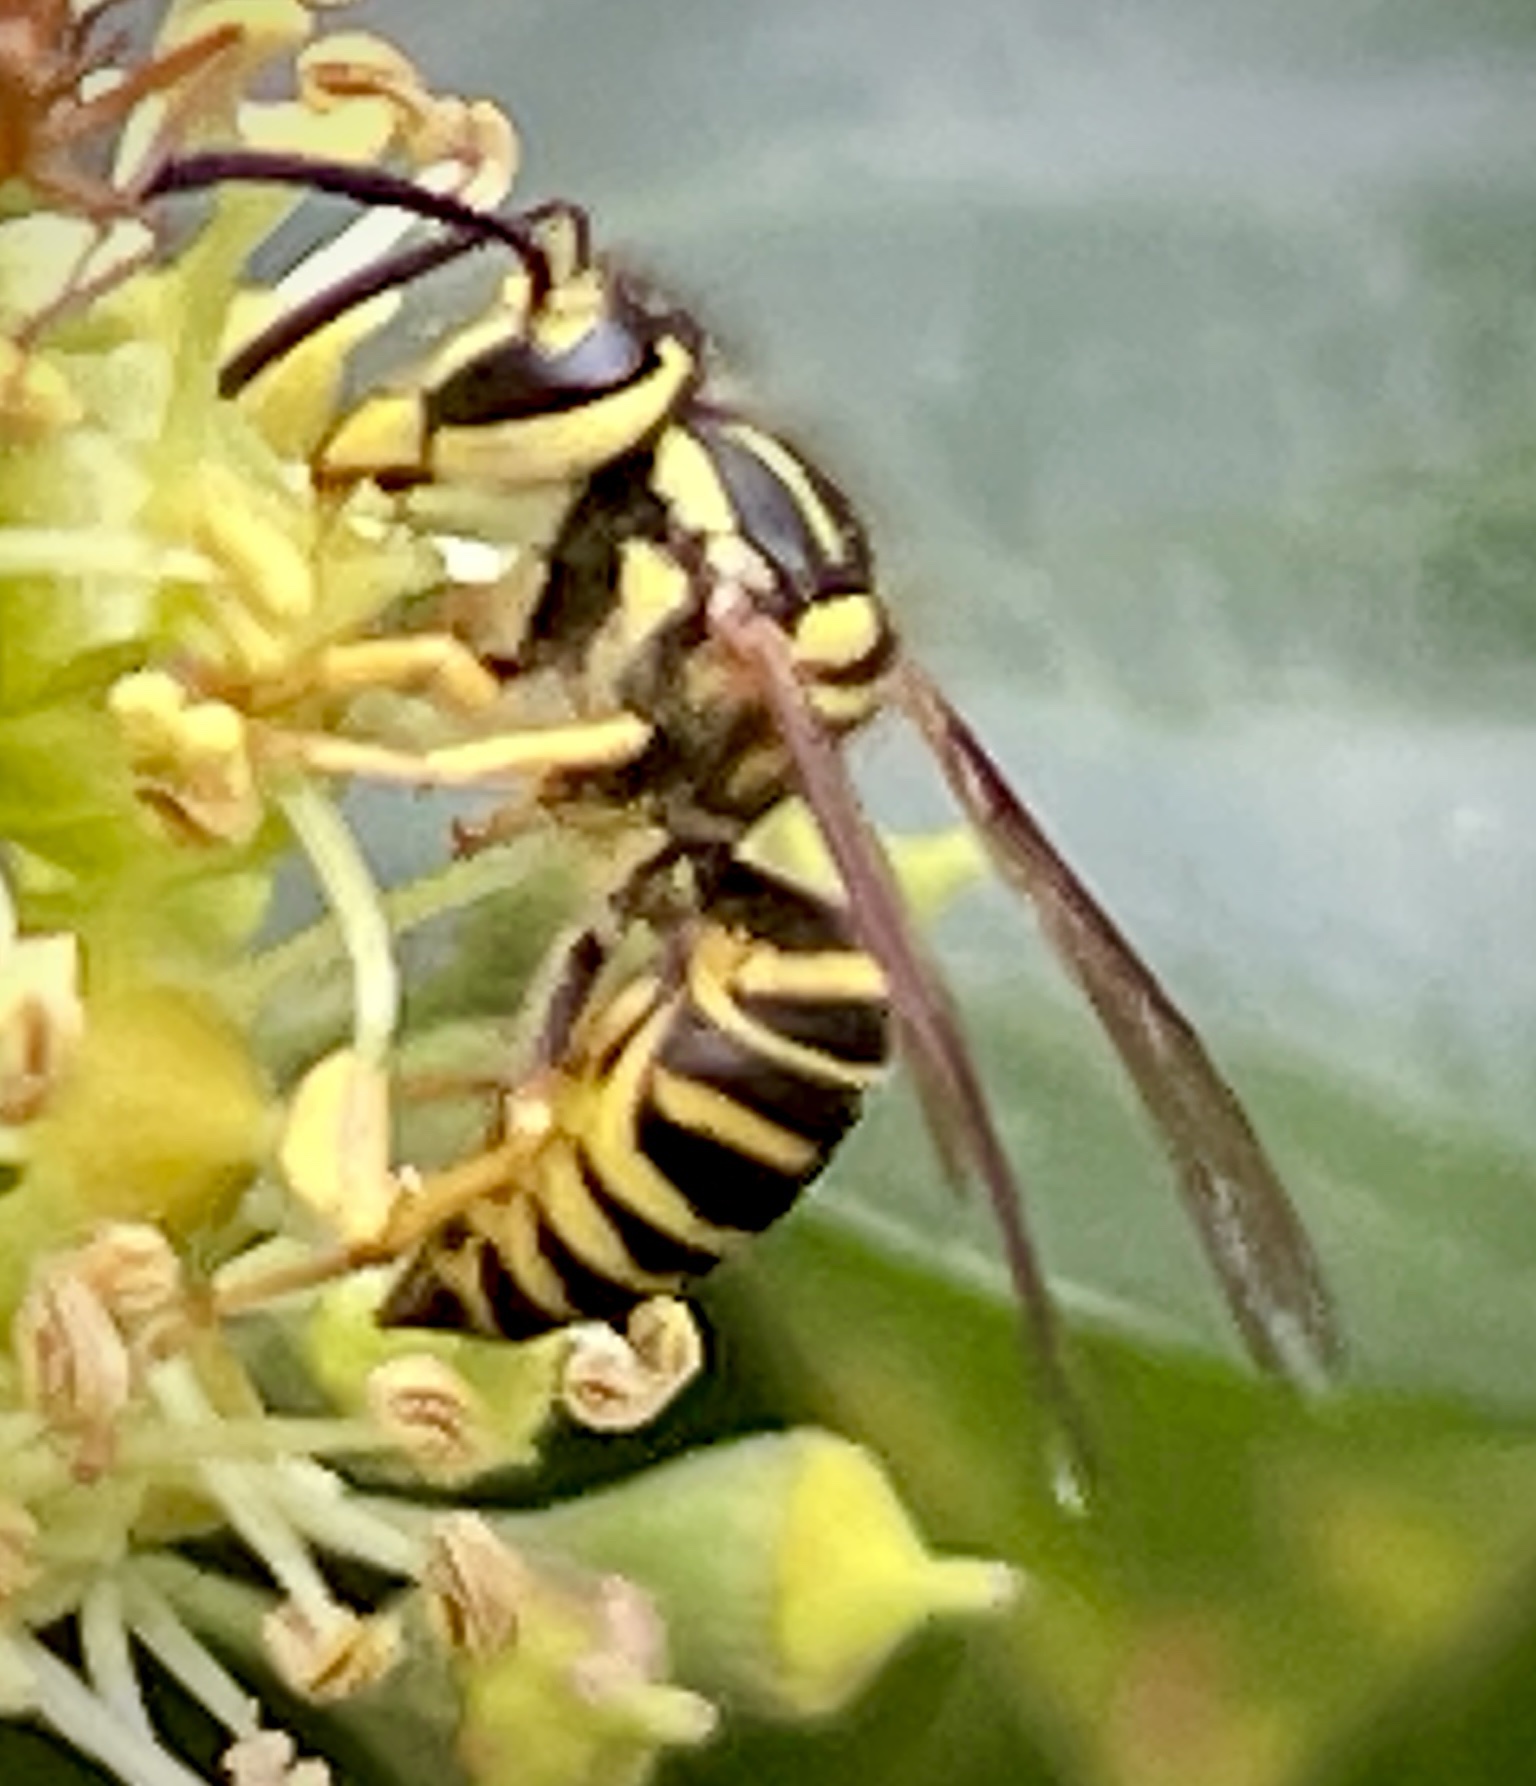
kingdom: Animalia
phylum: Arthropoda
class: Insecta
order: Hymenoptera
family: Vespidae
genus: Vespula
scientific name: Vespula squamosa
